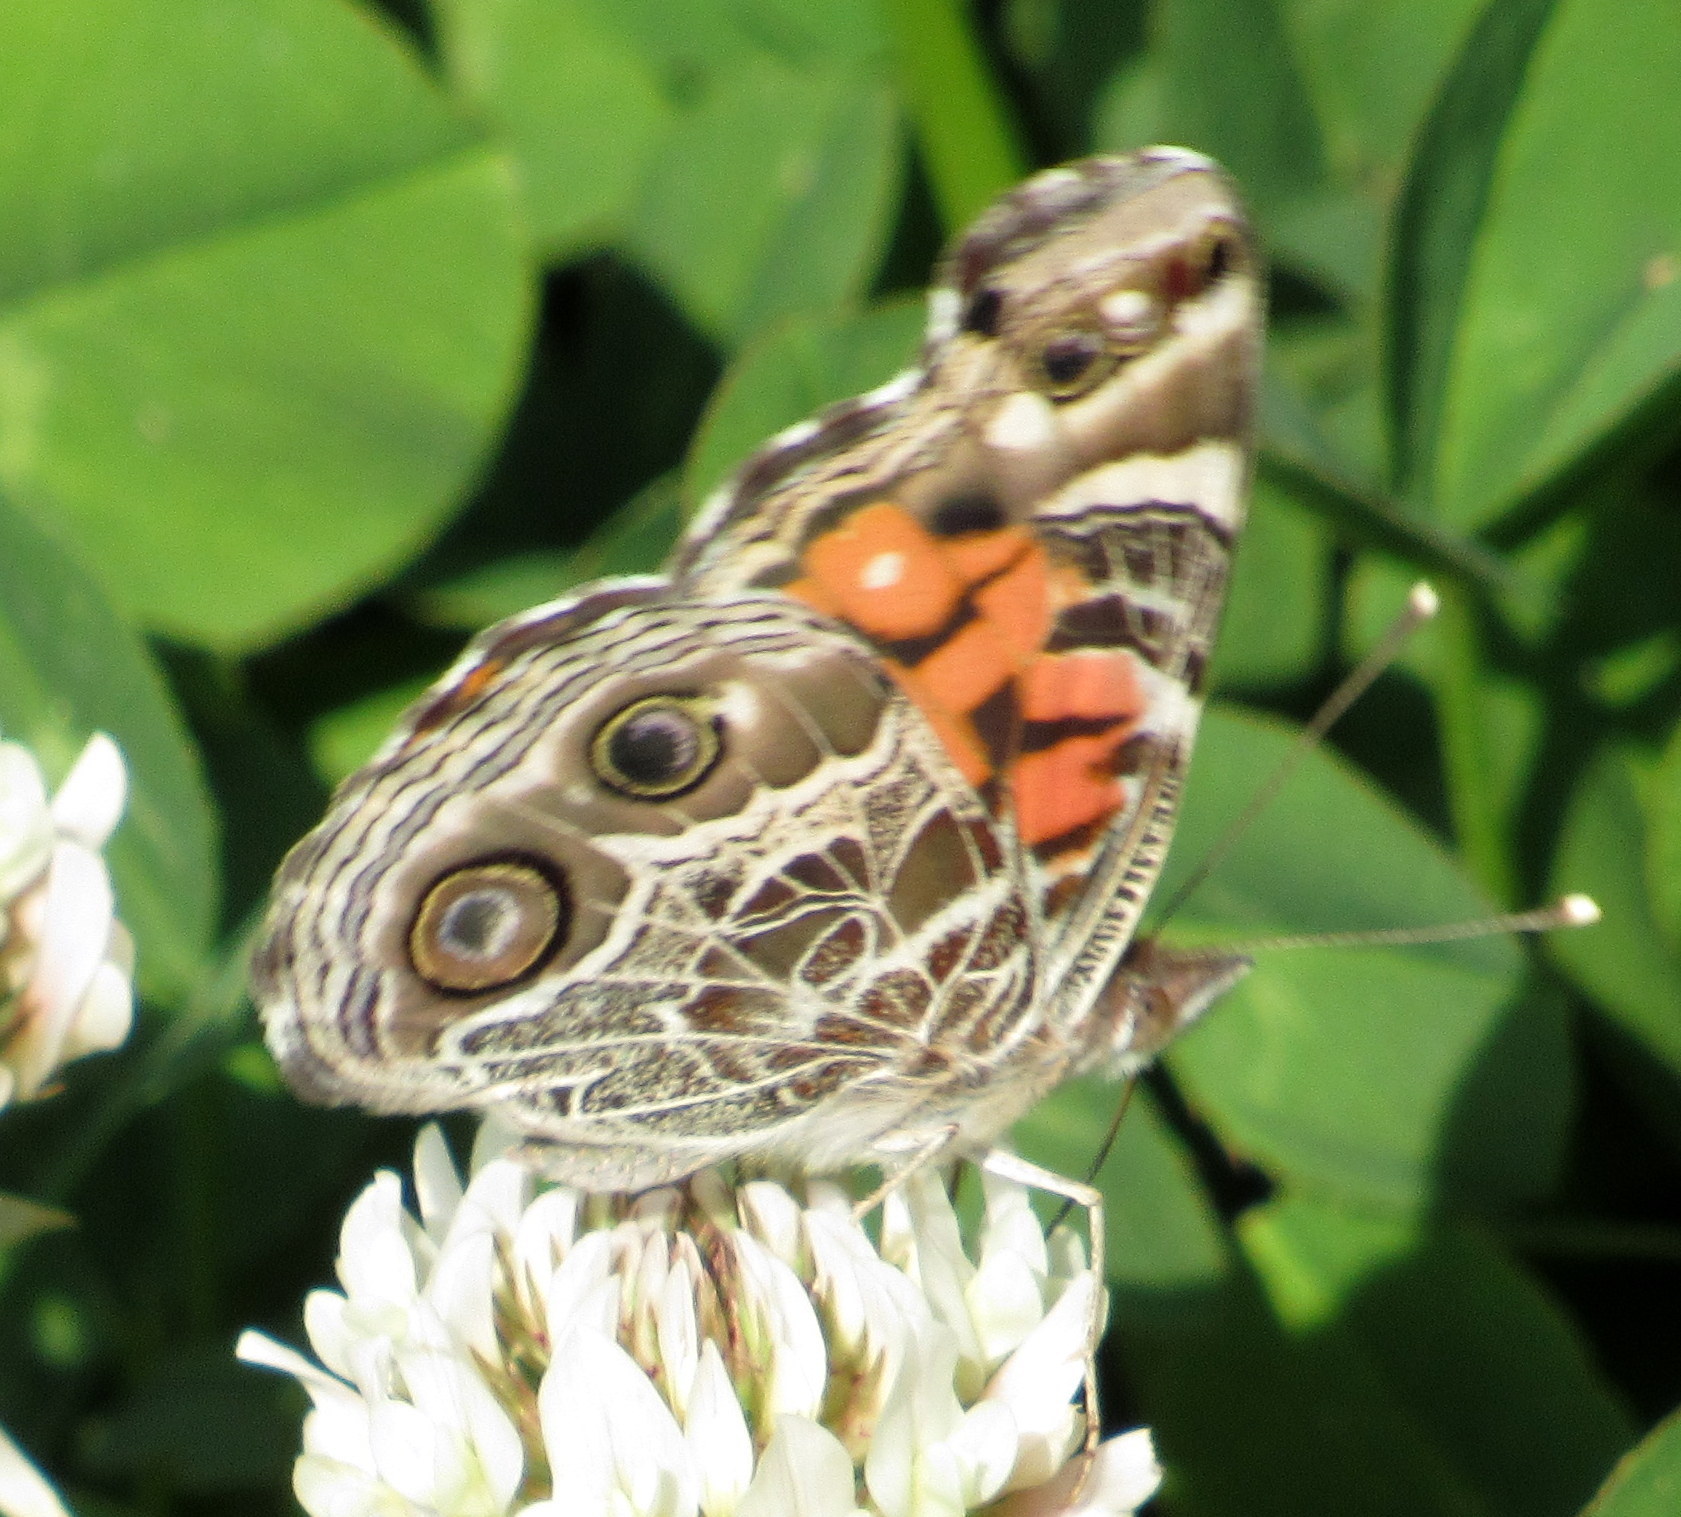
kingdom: Animalia
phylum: Arthropoda
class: Insecta
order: Lepidoptera
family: Nymphalidae
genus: Vanessa
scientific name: Vanessa virginiensis
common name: American lady
